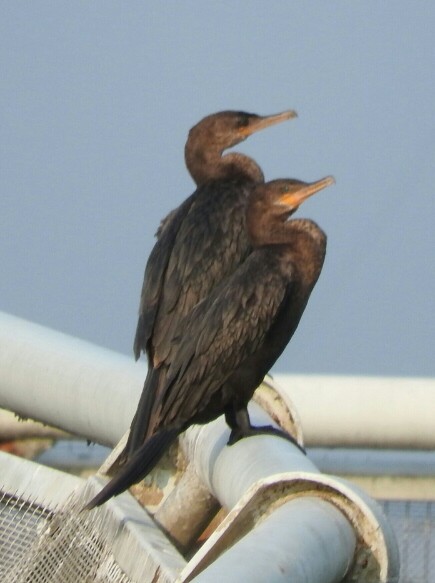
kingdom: Animalia
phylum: Chordata
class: Aves
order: Suliformes
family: Phalacrocoracidae
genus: Phalacrocorax
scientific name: Phalacrocorax brasilianus
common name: Neotropic cormorant
